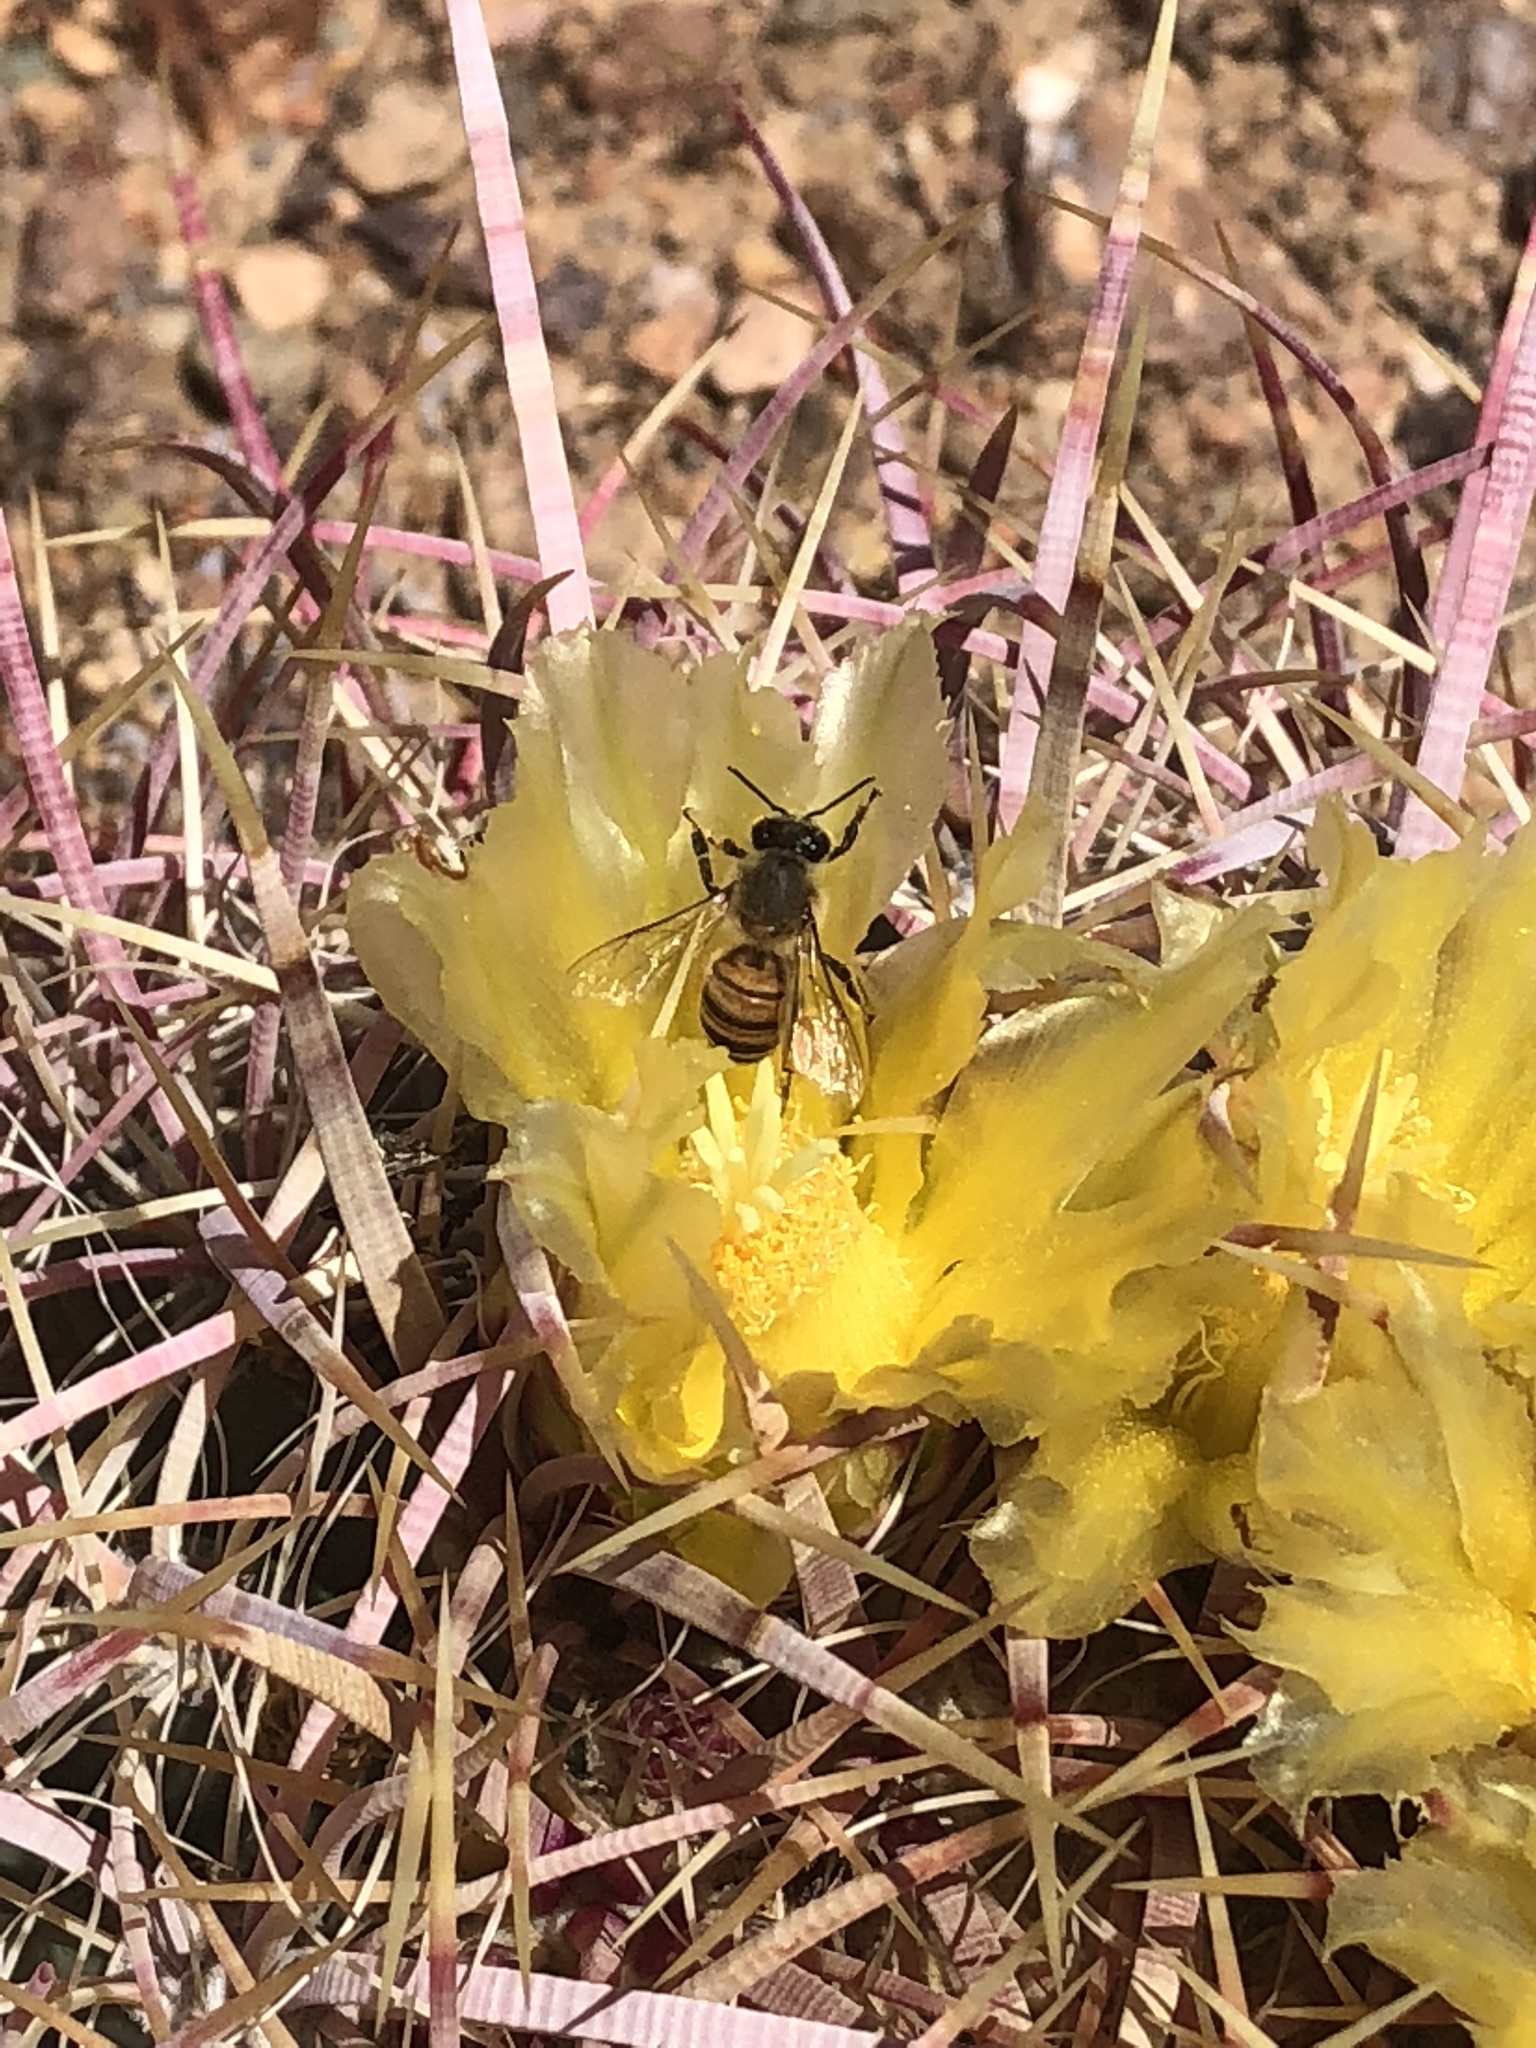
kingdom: Animalia
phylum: Arthropoda
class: Insecta
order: Hymenoptera
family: Apidae
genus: Apis
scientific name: Apis mellifera
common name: Honey bee
